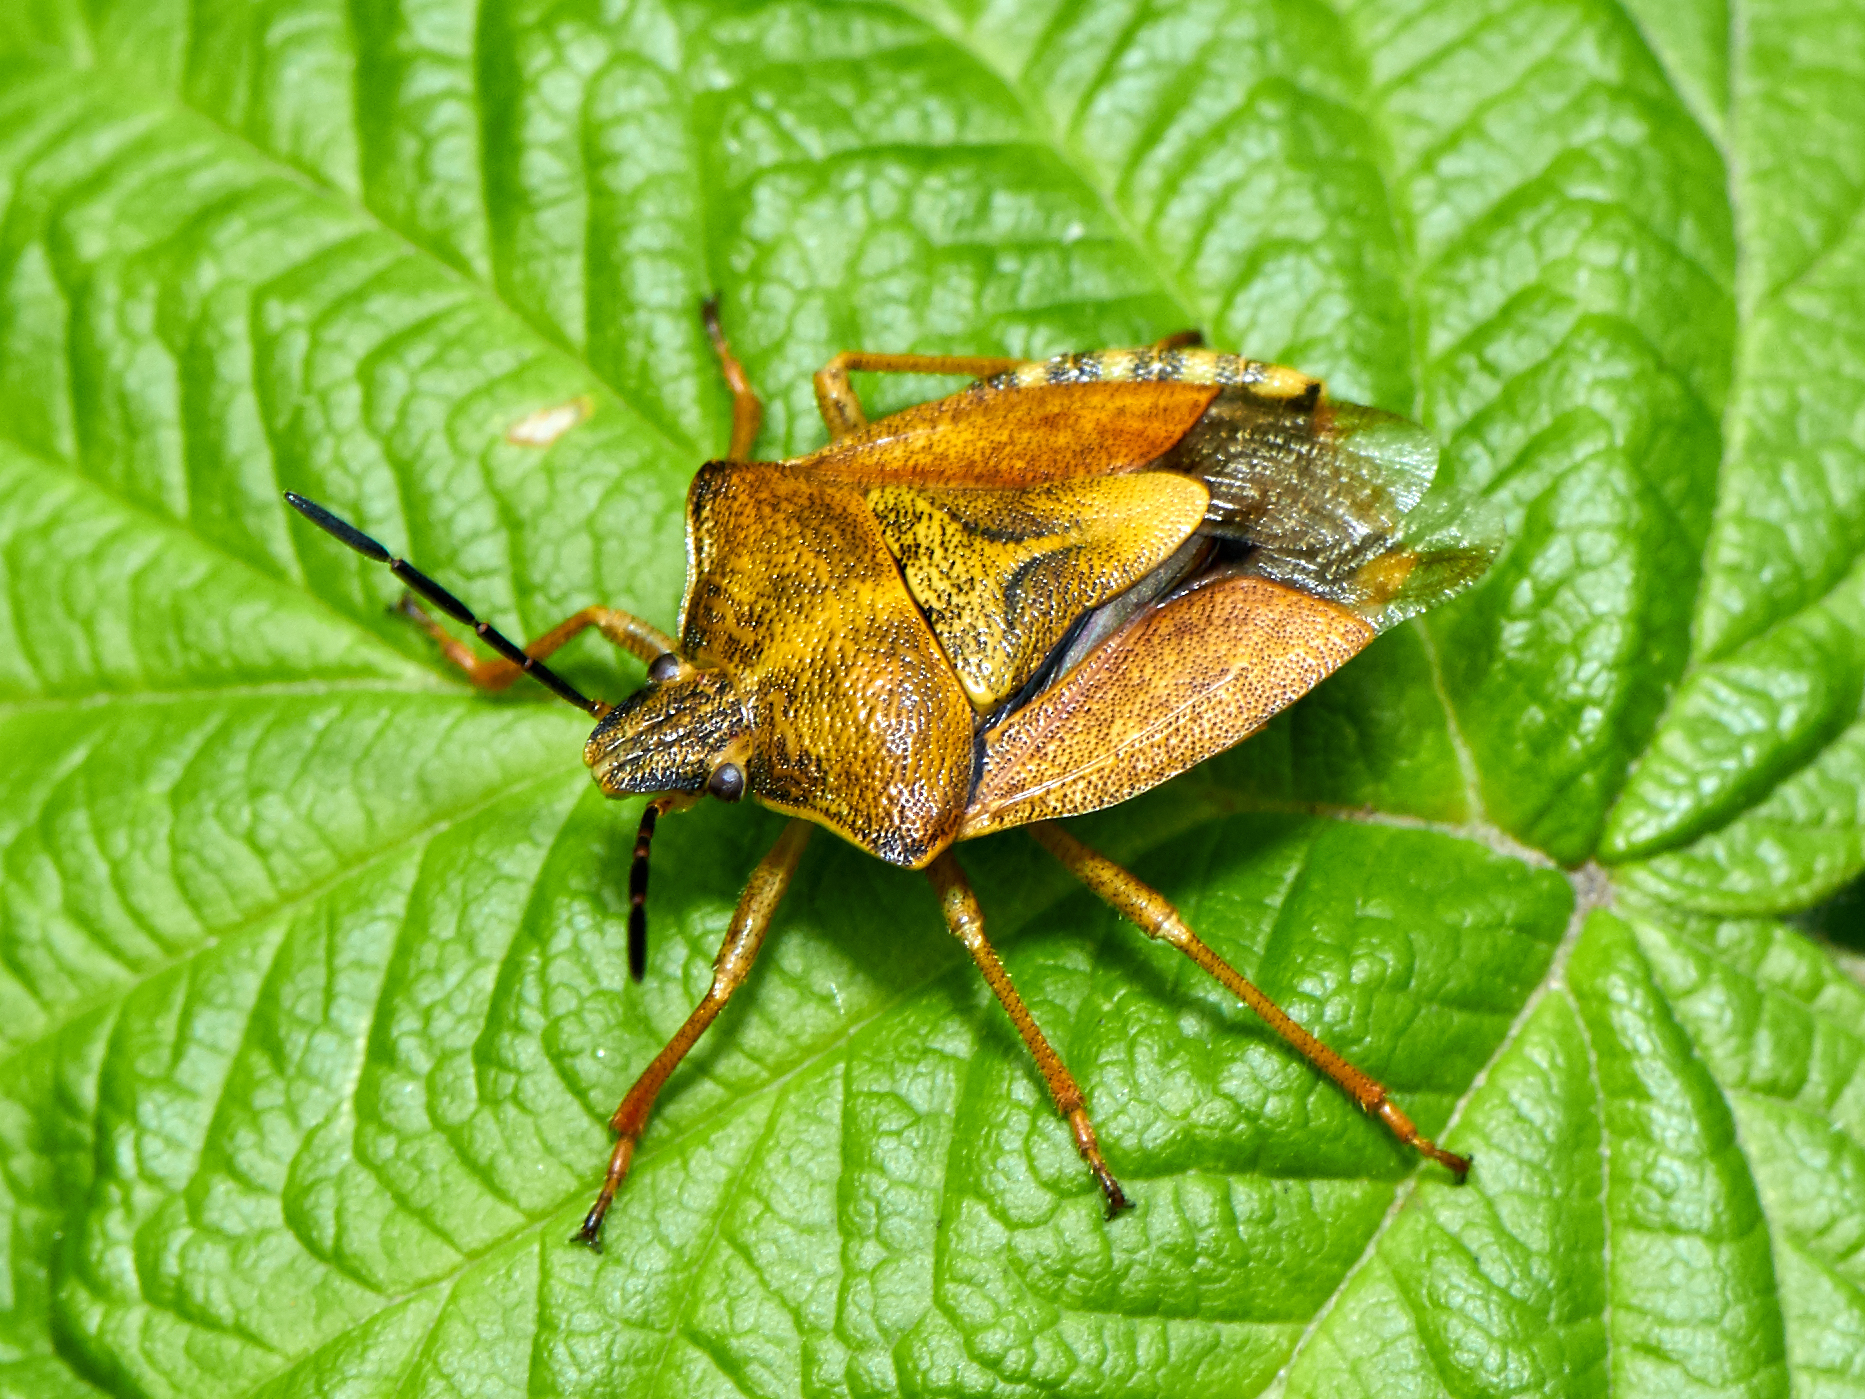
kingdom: Animalia
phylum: Arthropoda
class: Insecta
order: Hemiptera
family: Pentatomidae
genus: Carpocoris
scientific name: Carpocoris purpureipennis
